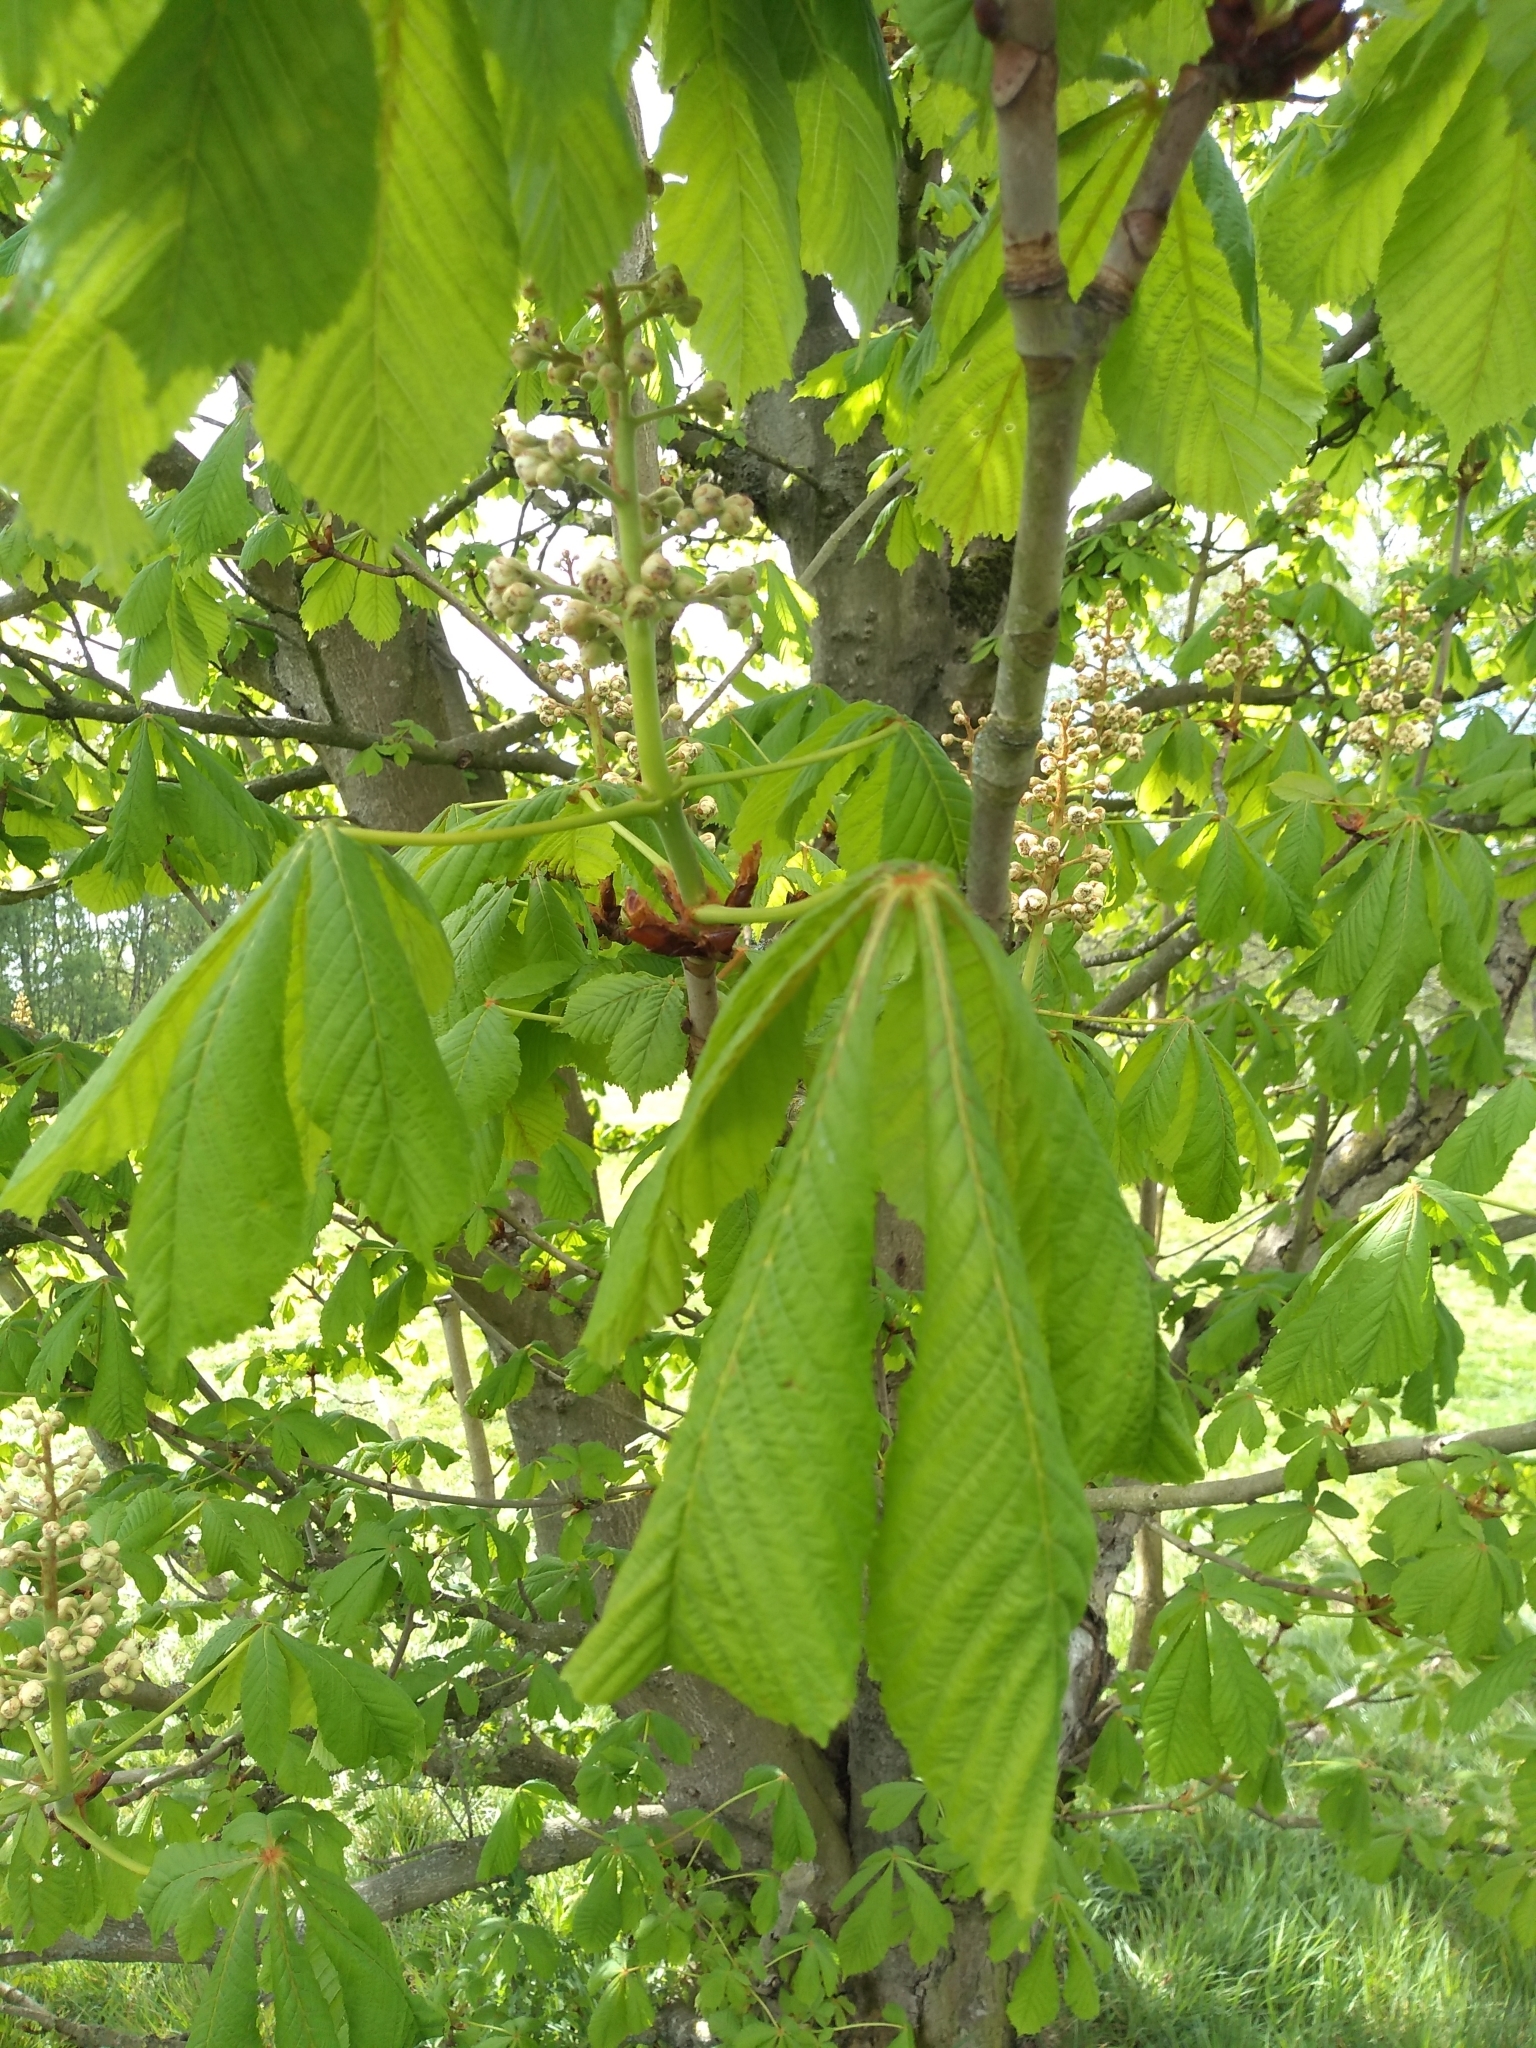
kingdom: Plantae
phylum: Tracheophyta
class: Magnoliopsida
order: Sapindales
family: Sapindaceae
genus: Aesculus
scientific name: Aesculus hippocastanum
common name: Horse-chestnut
